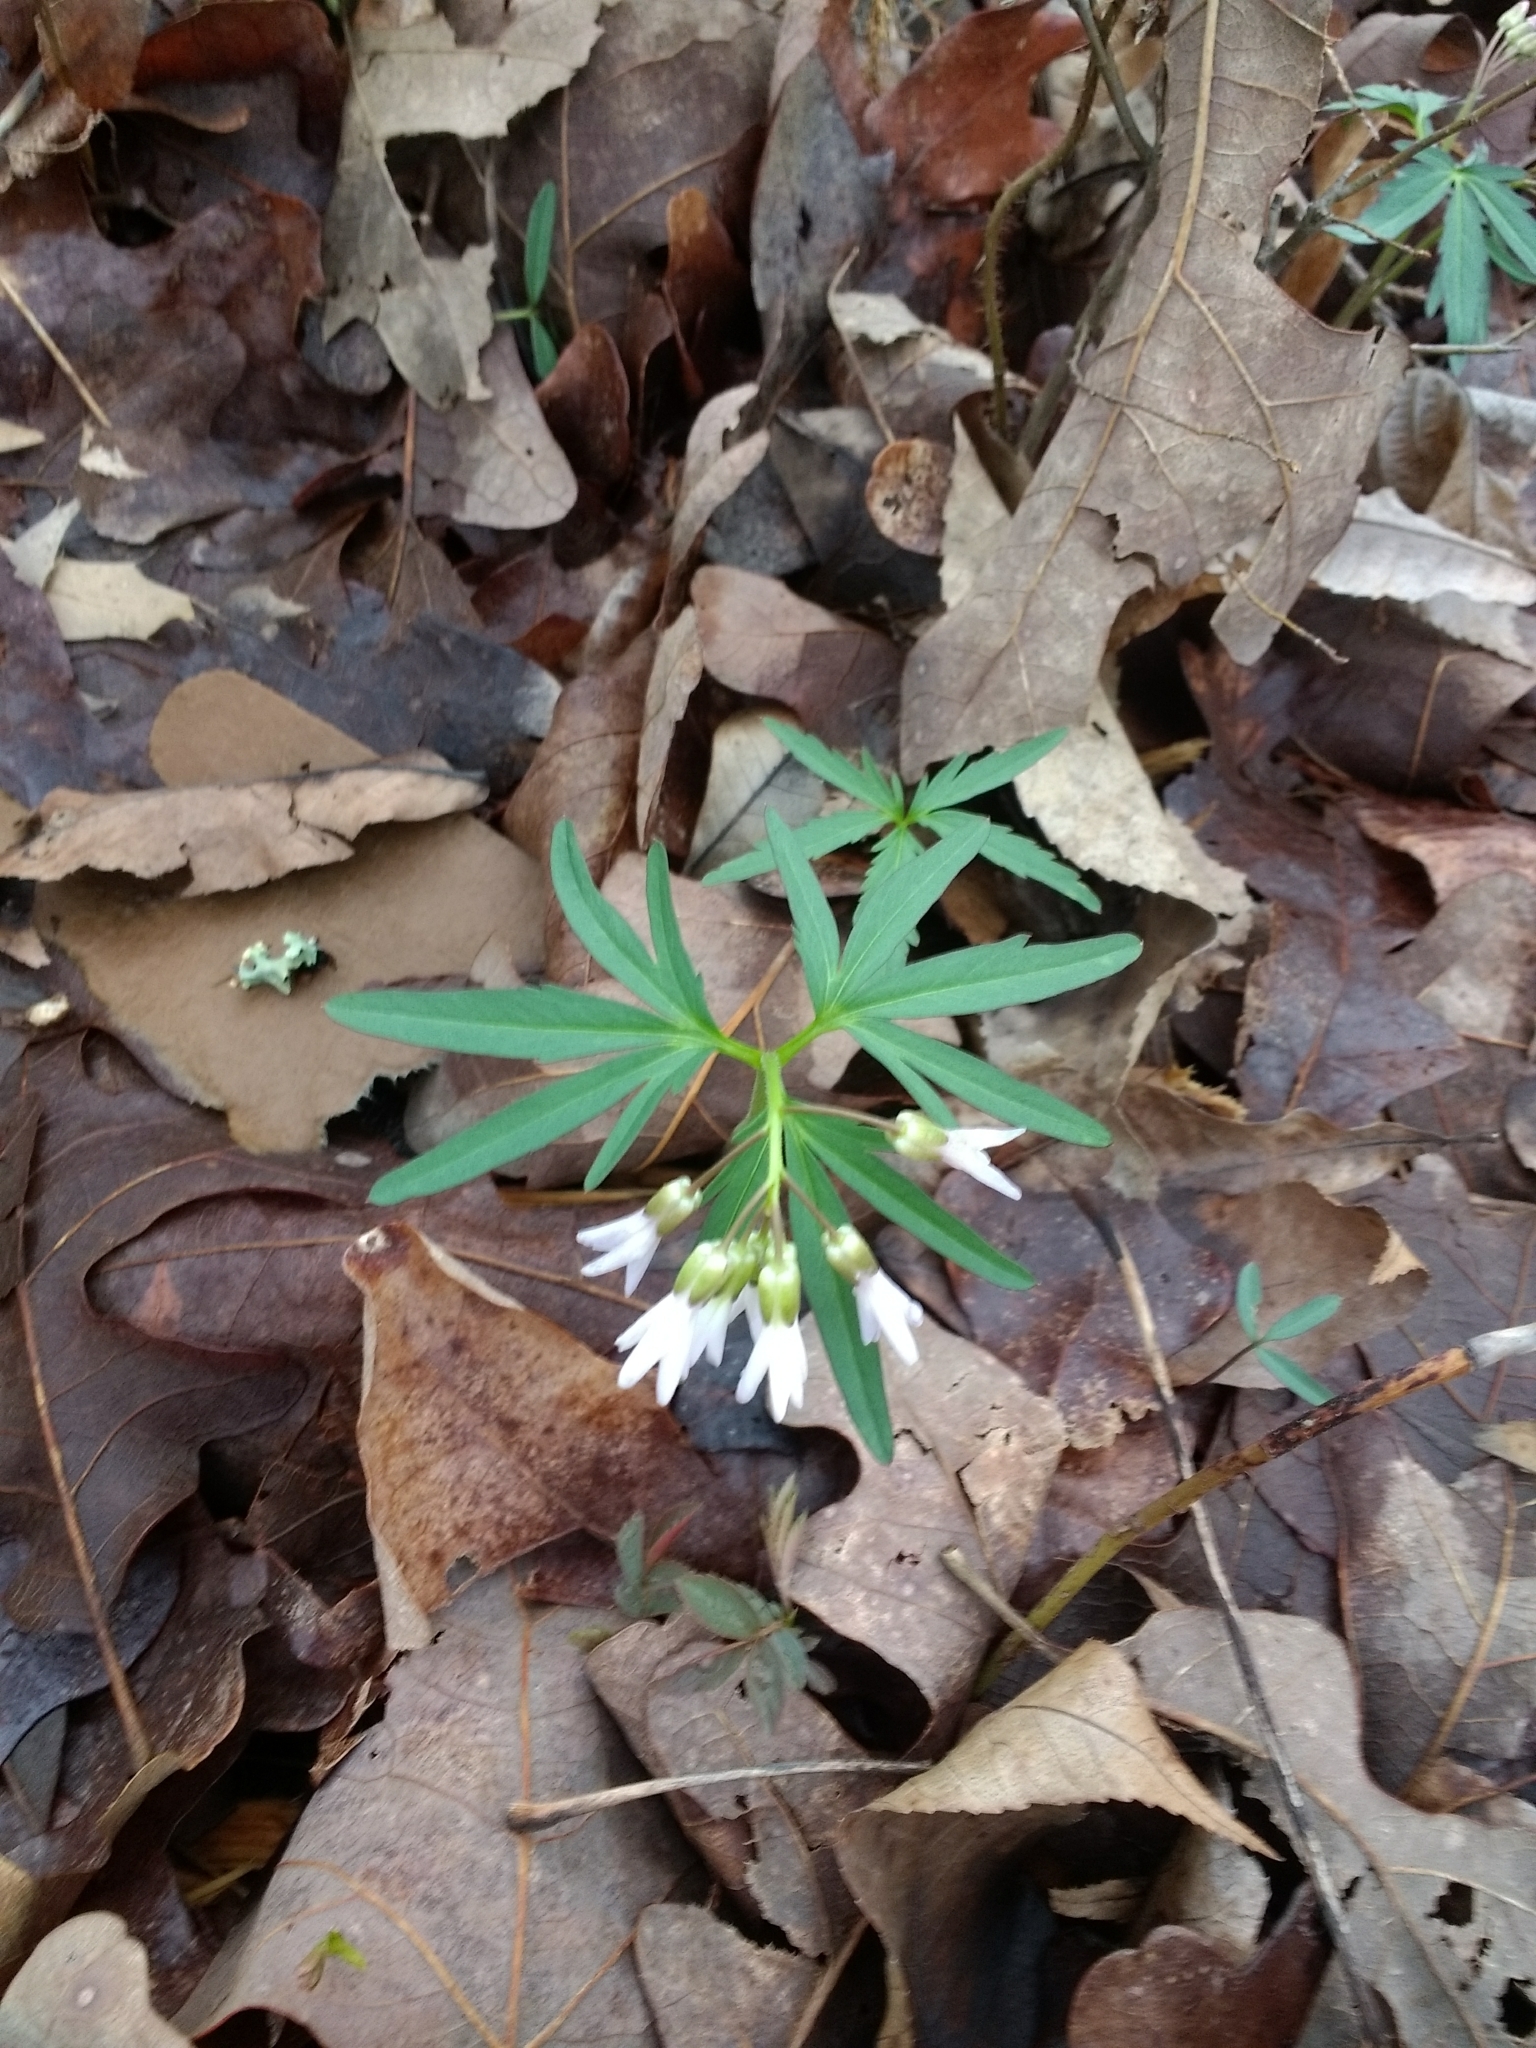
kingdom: Plantae
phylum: Tracheophyta
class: Magnoliopsida
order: Brassicales
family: Brassicaceae
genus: Cardamine
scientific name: Cardamine concatenata
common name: Cut-leaf toothcup
